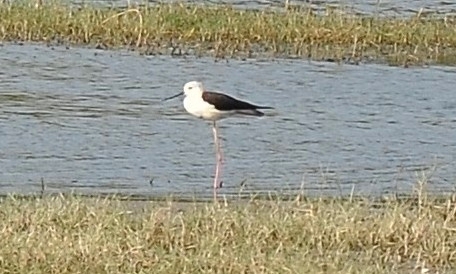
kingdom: Animalia
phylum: Chordata
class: Aves
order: Charadriiformes
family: Recurvirostridae
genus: Himantopus
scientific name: Himantopus himantopus
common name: Black-winged stilt
